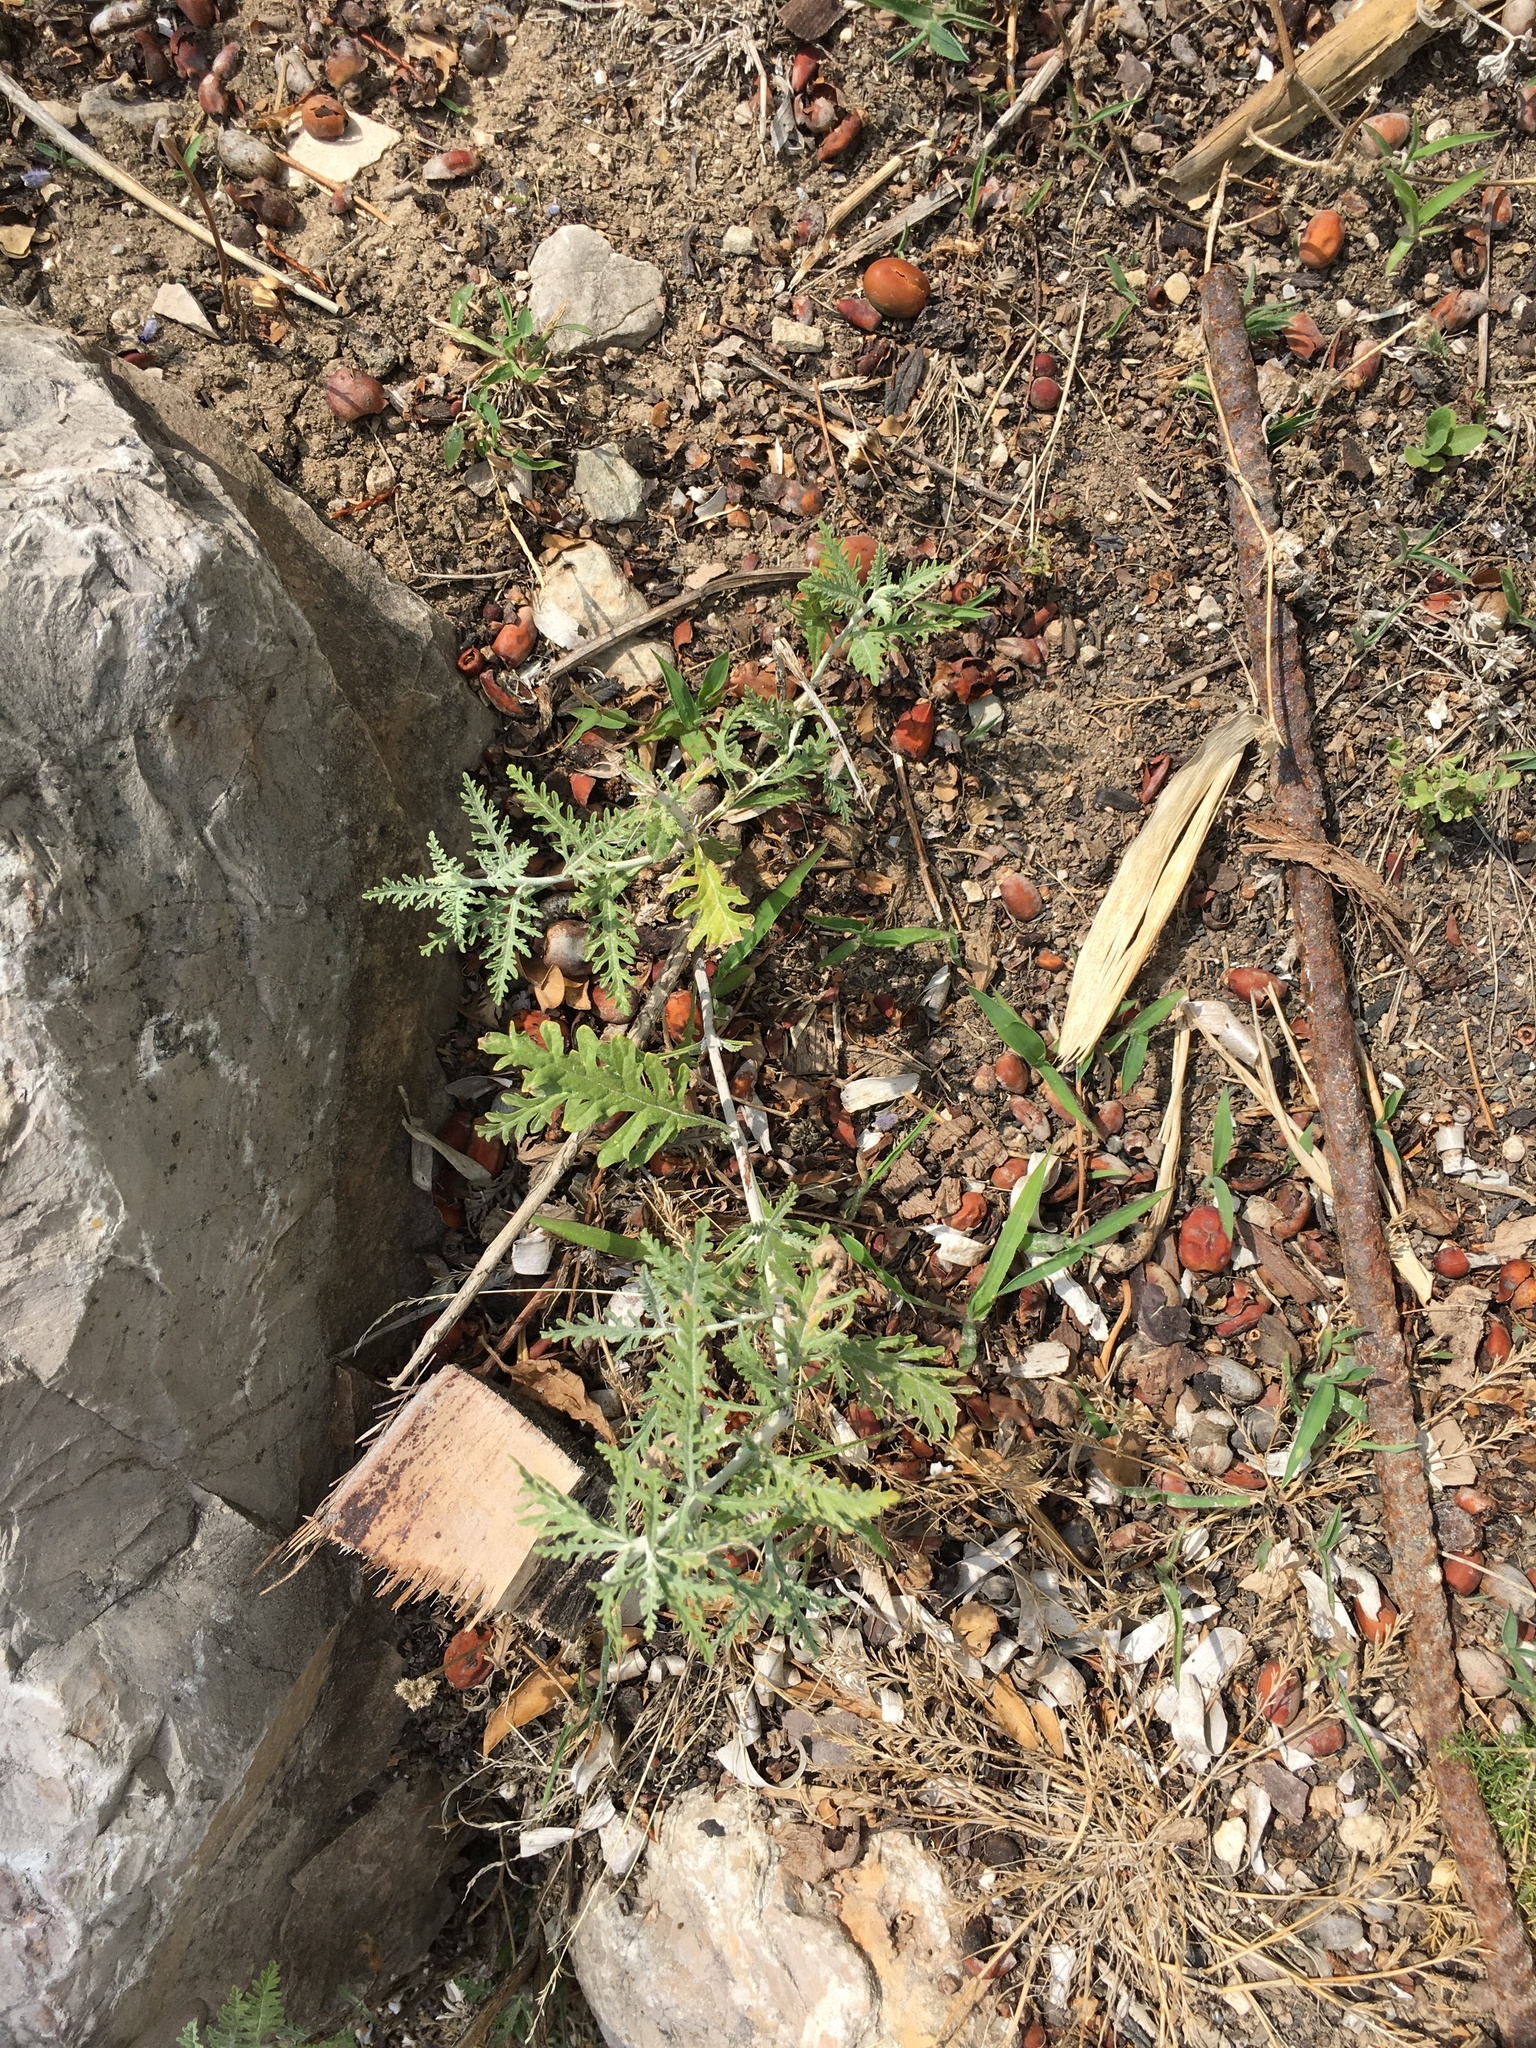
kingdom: Plantae
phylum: Tracheophyta
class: Magnoliopsida
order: Lamiales
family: Lamiaceae
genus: Salvia
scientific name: Salvia
